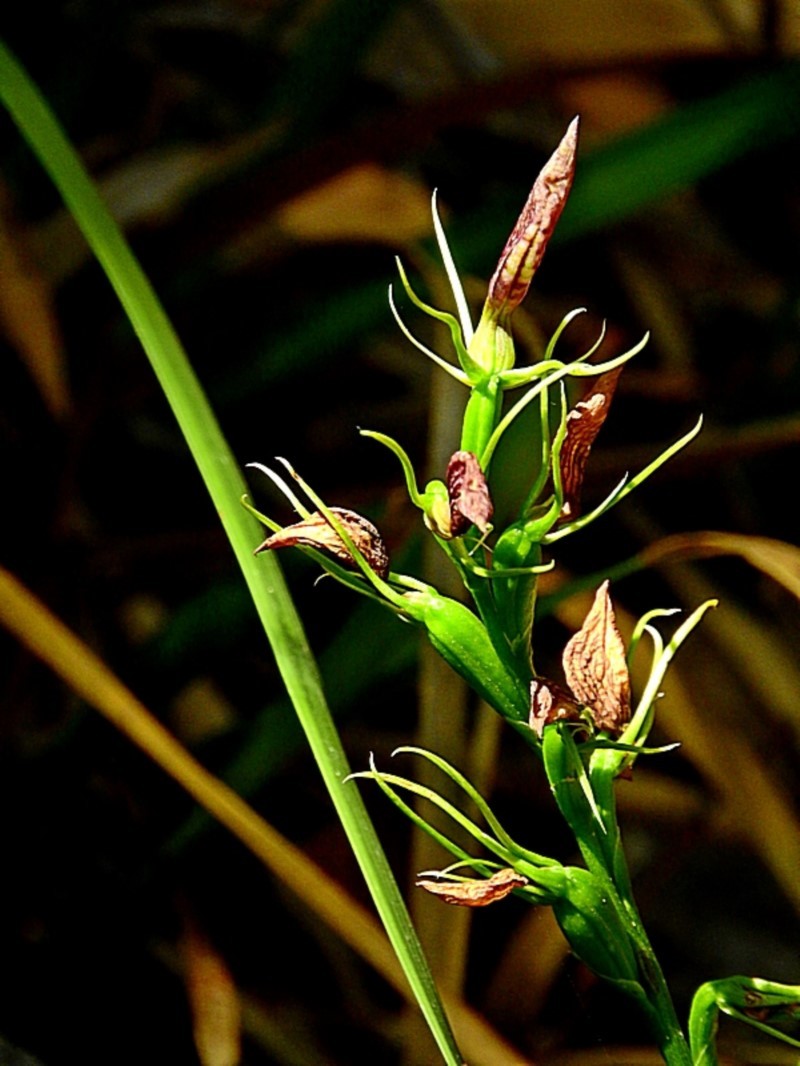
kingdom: Plantae
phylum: Tracheophyta
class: Liliopsida
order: Asparagales
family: Orchidaceae
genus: Cryptostylis
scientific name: Cryptostylis erecta
